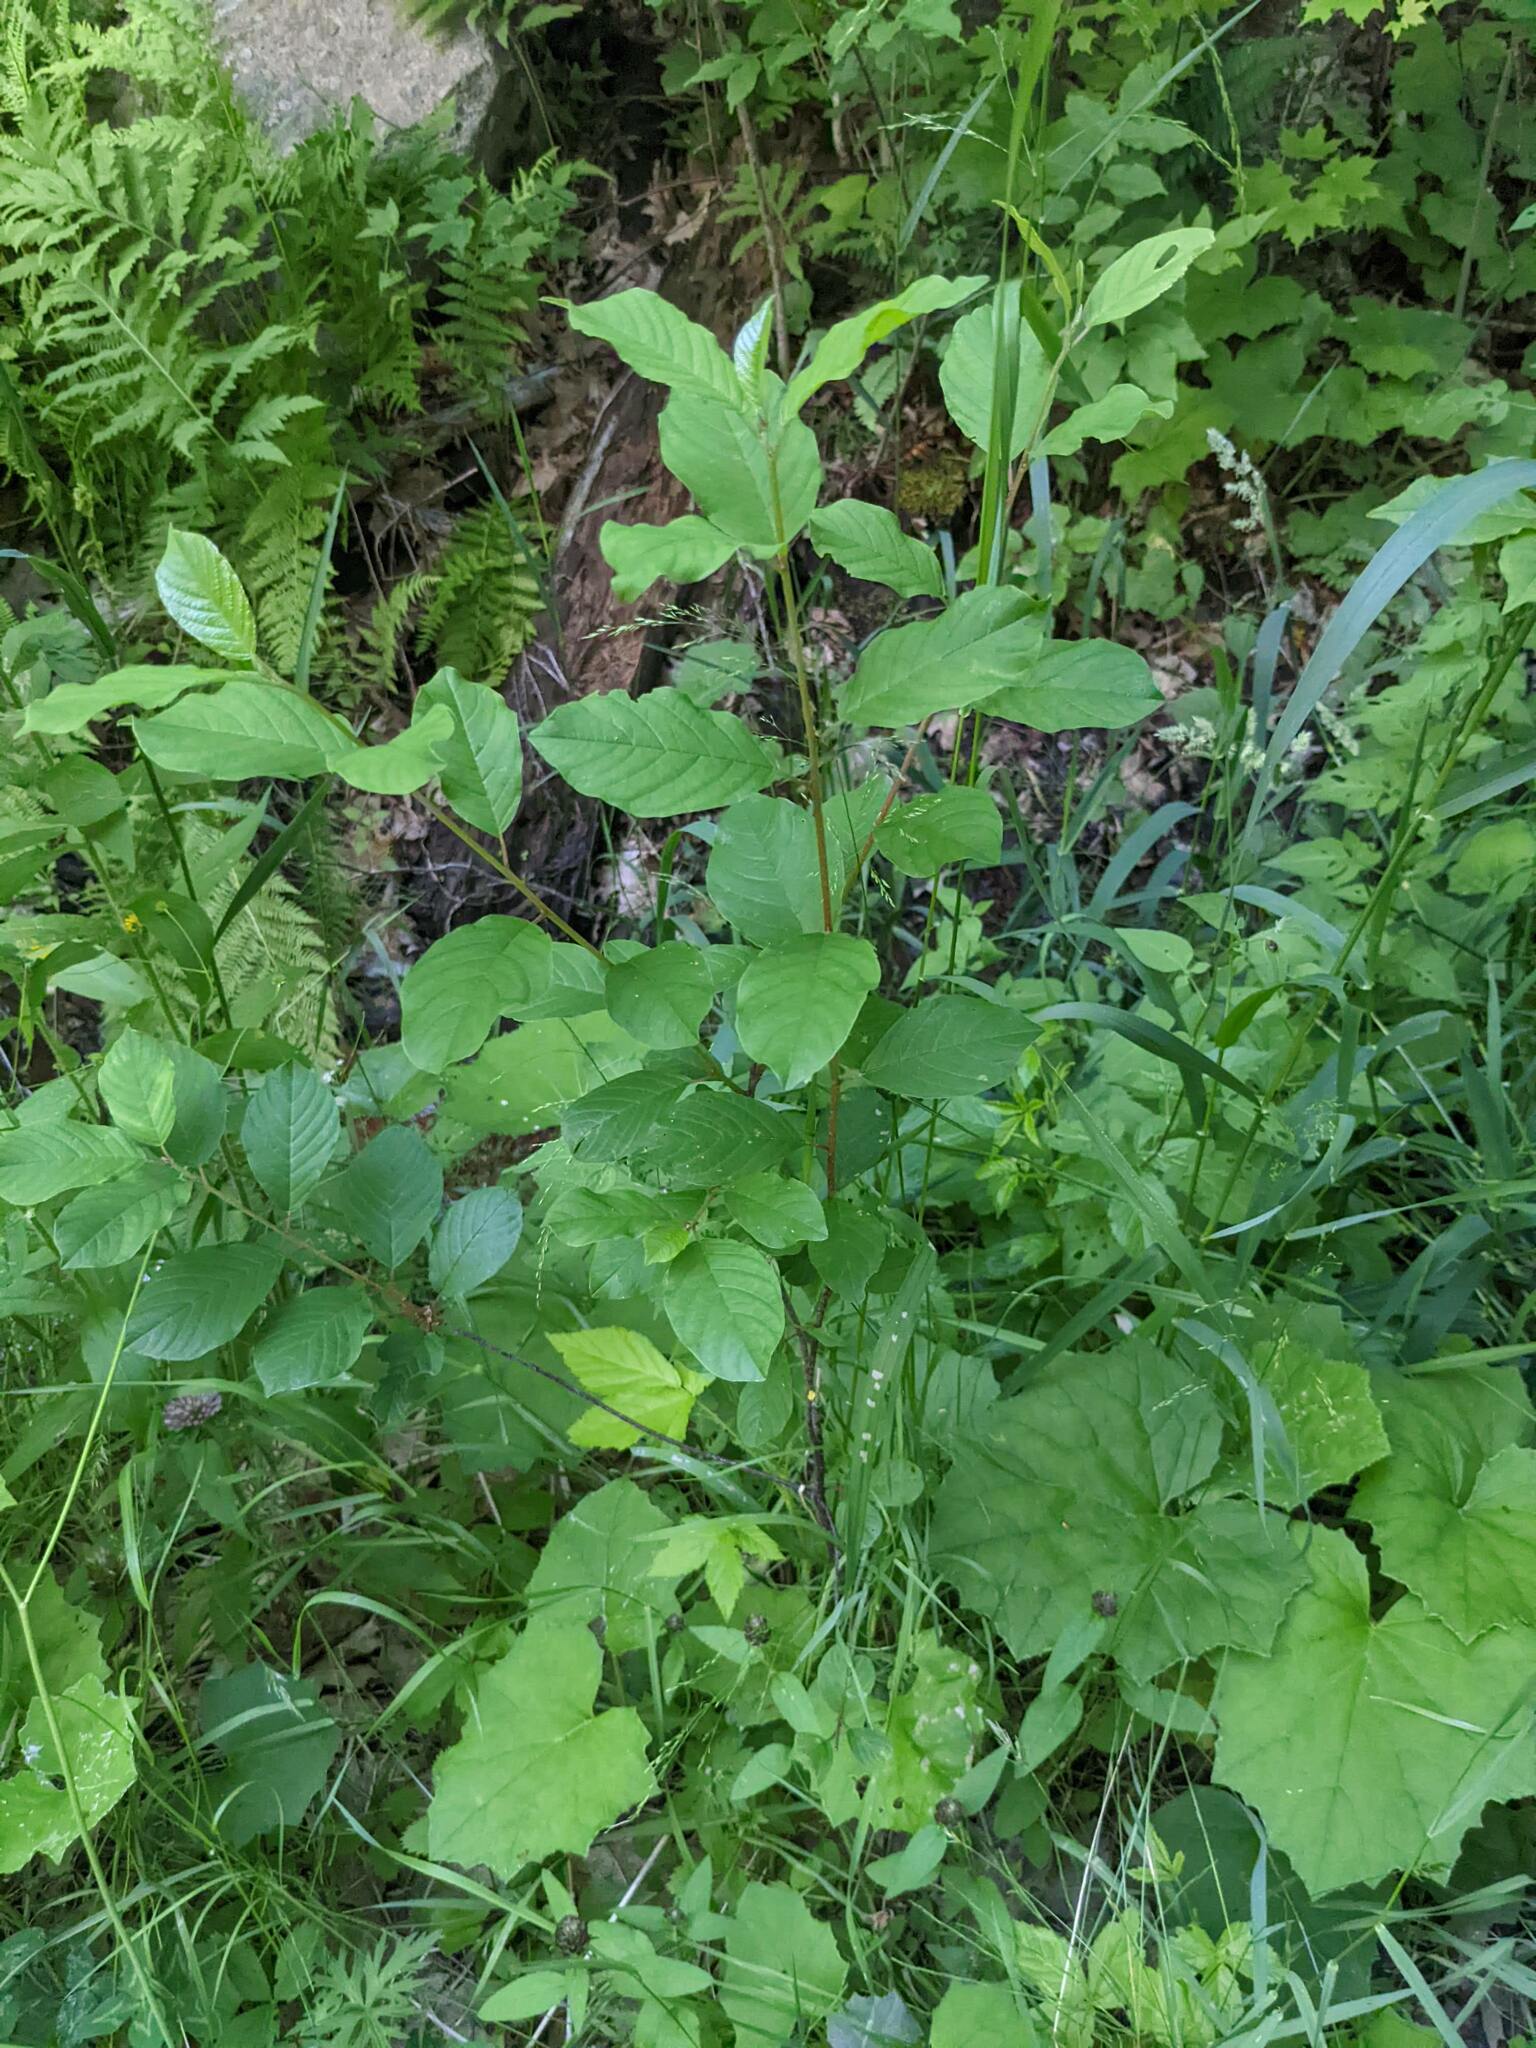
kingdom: Plantae
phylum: Tracheophyta
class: Magnoliopsida
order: Rosales
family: Rhamnaceae
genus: Frangula
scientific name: Frangula alnus
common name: Alder buckthorn
